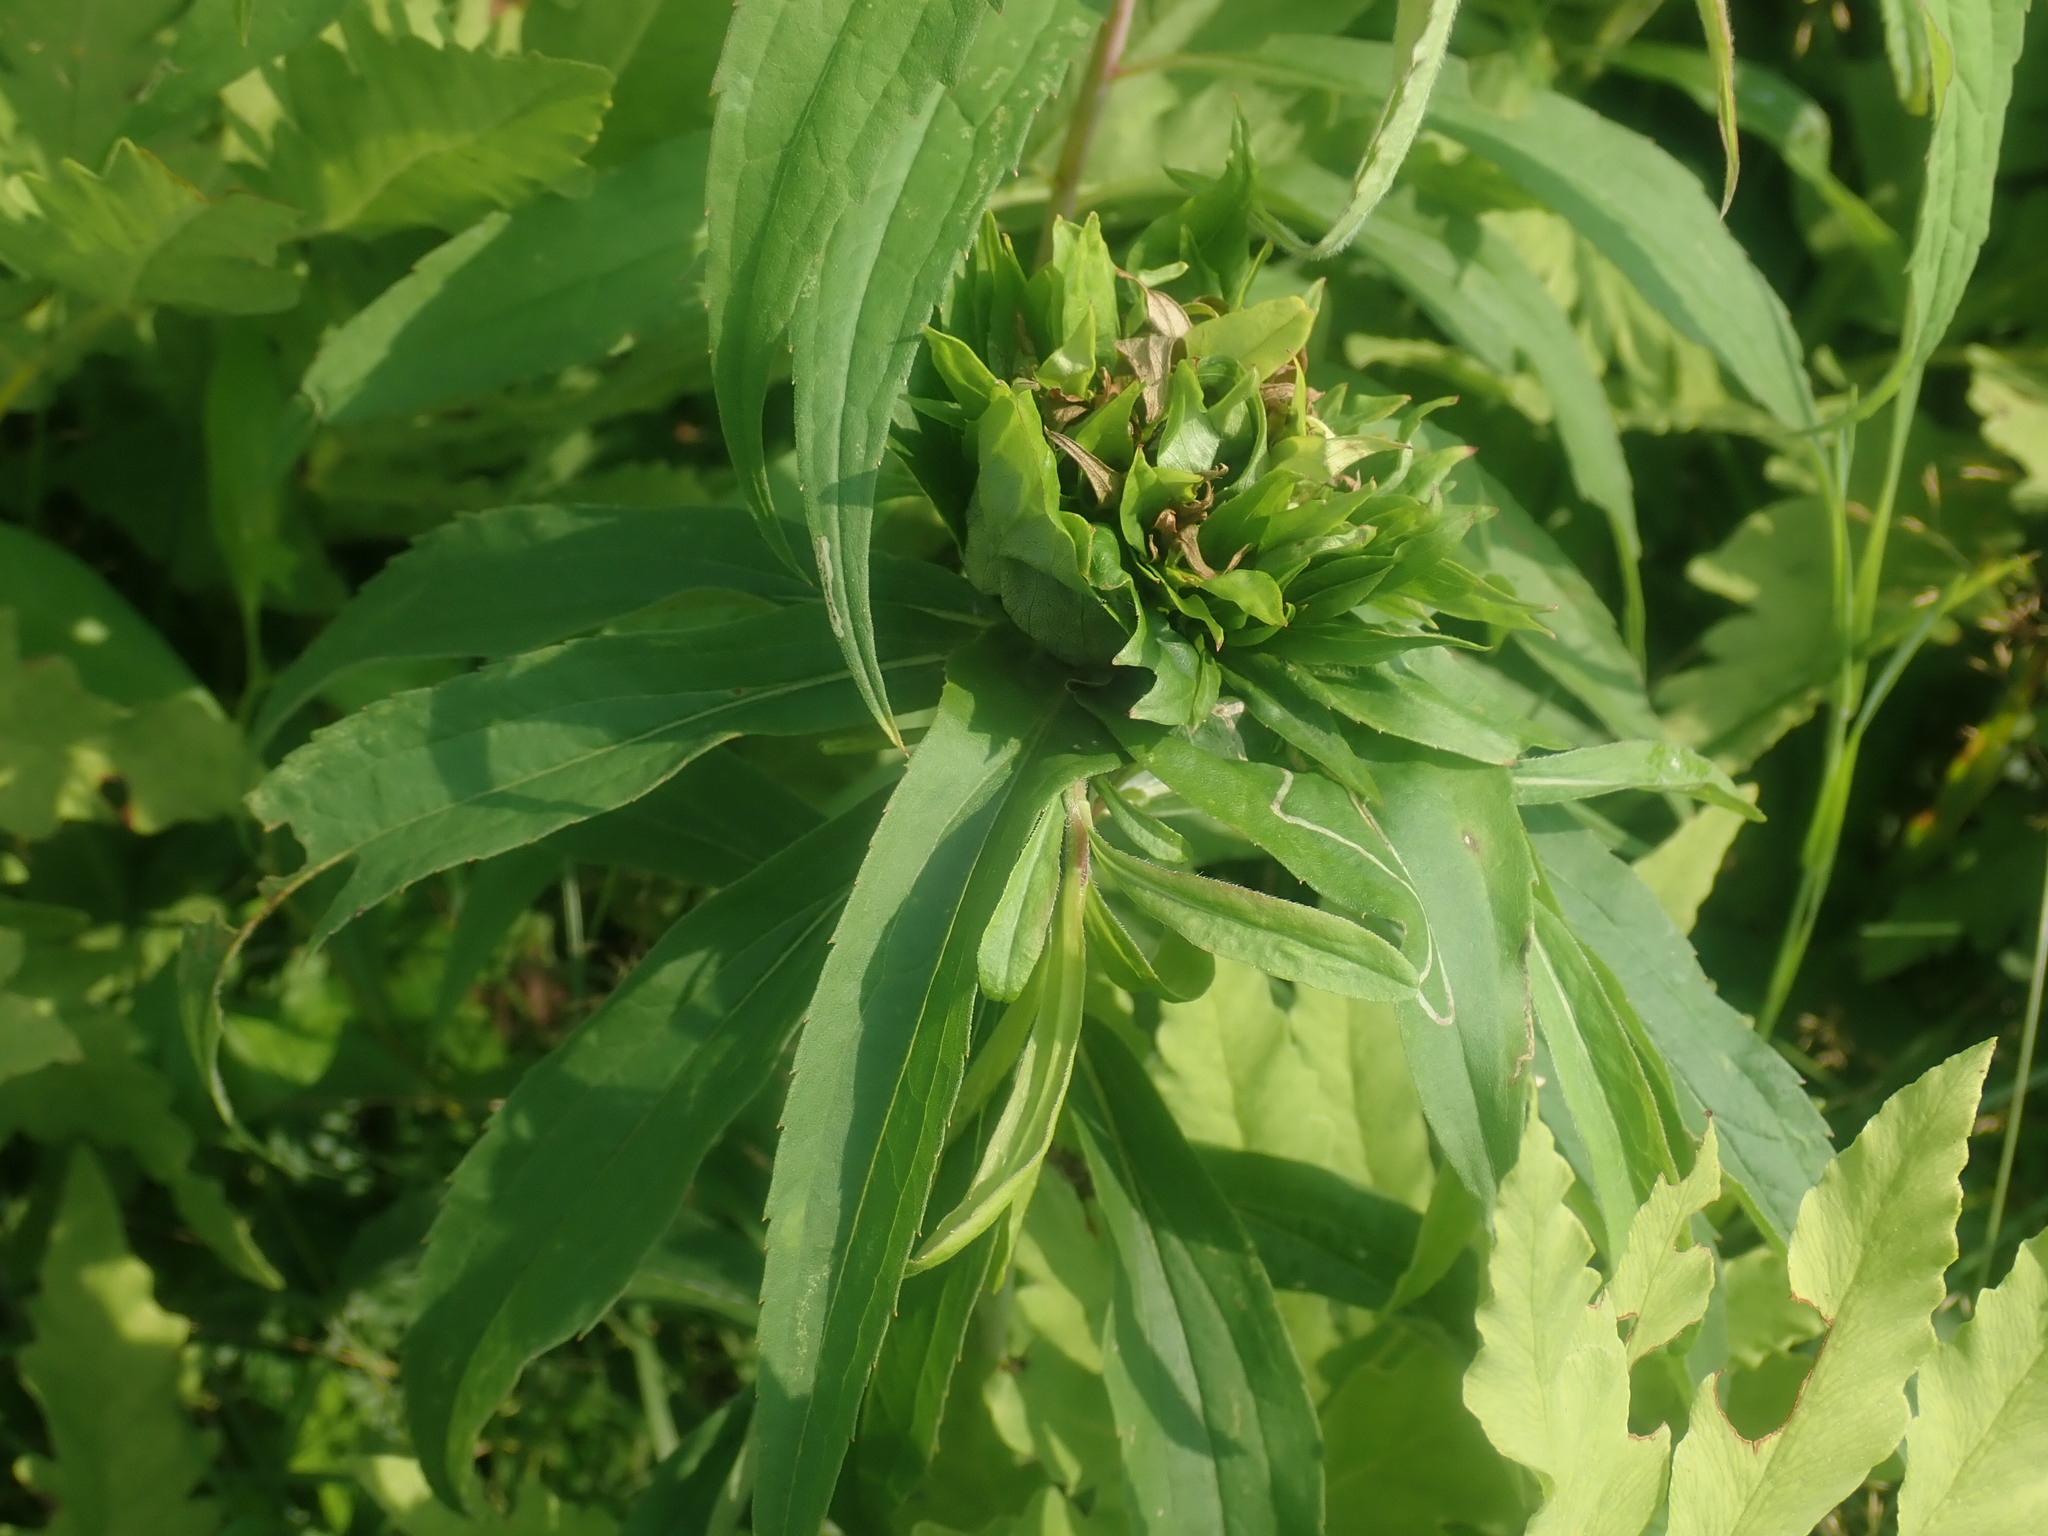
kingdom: Animalia
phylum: Arthropoda
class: Insecta
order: Diptera
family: Cecidomyiidae
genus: Rhopalomyia
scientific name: Rhopalomyia capitata
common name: Giant goldenrod bunch gall midge
